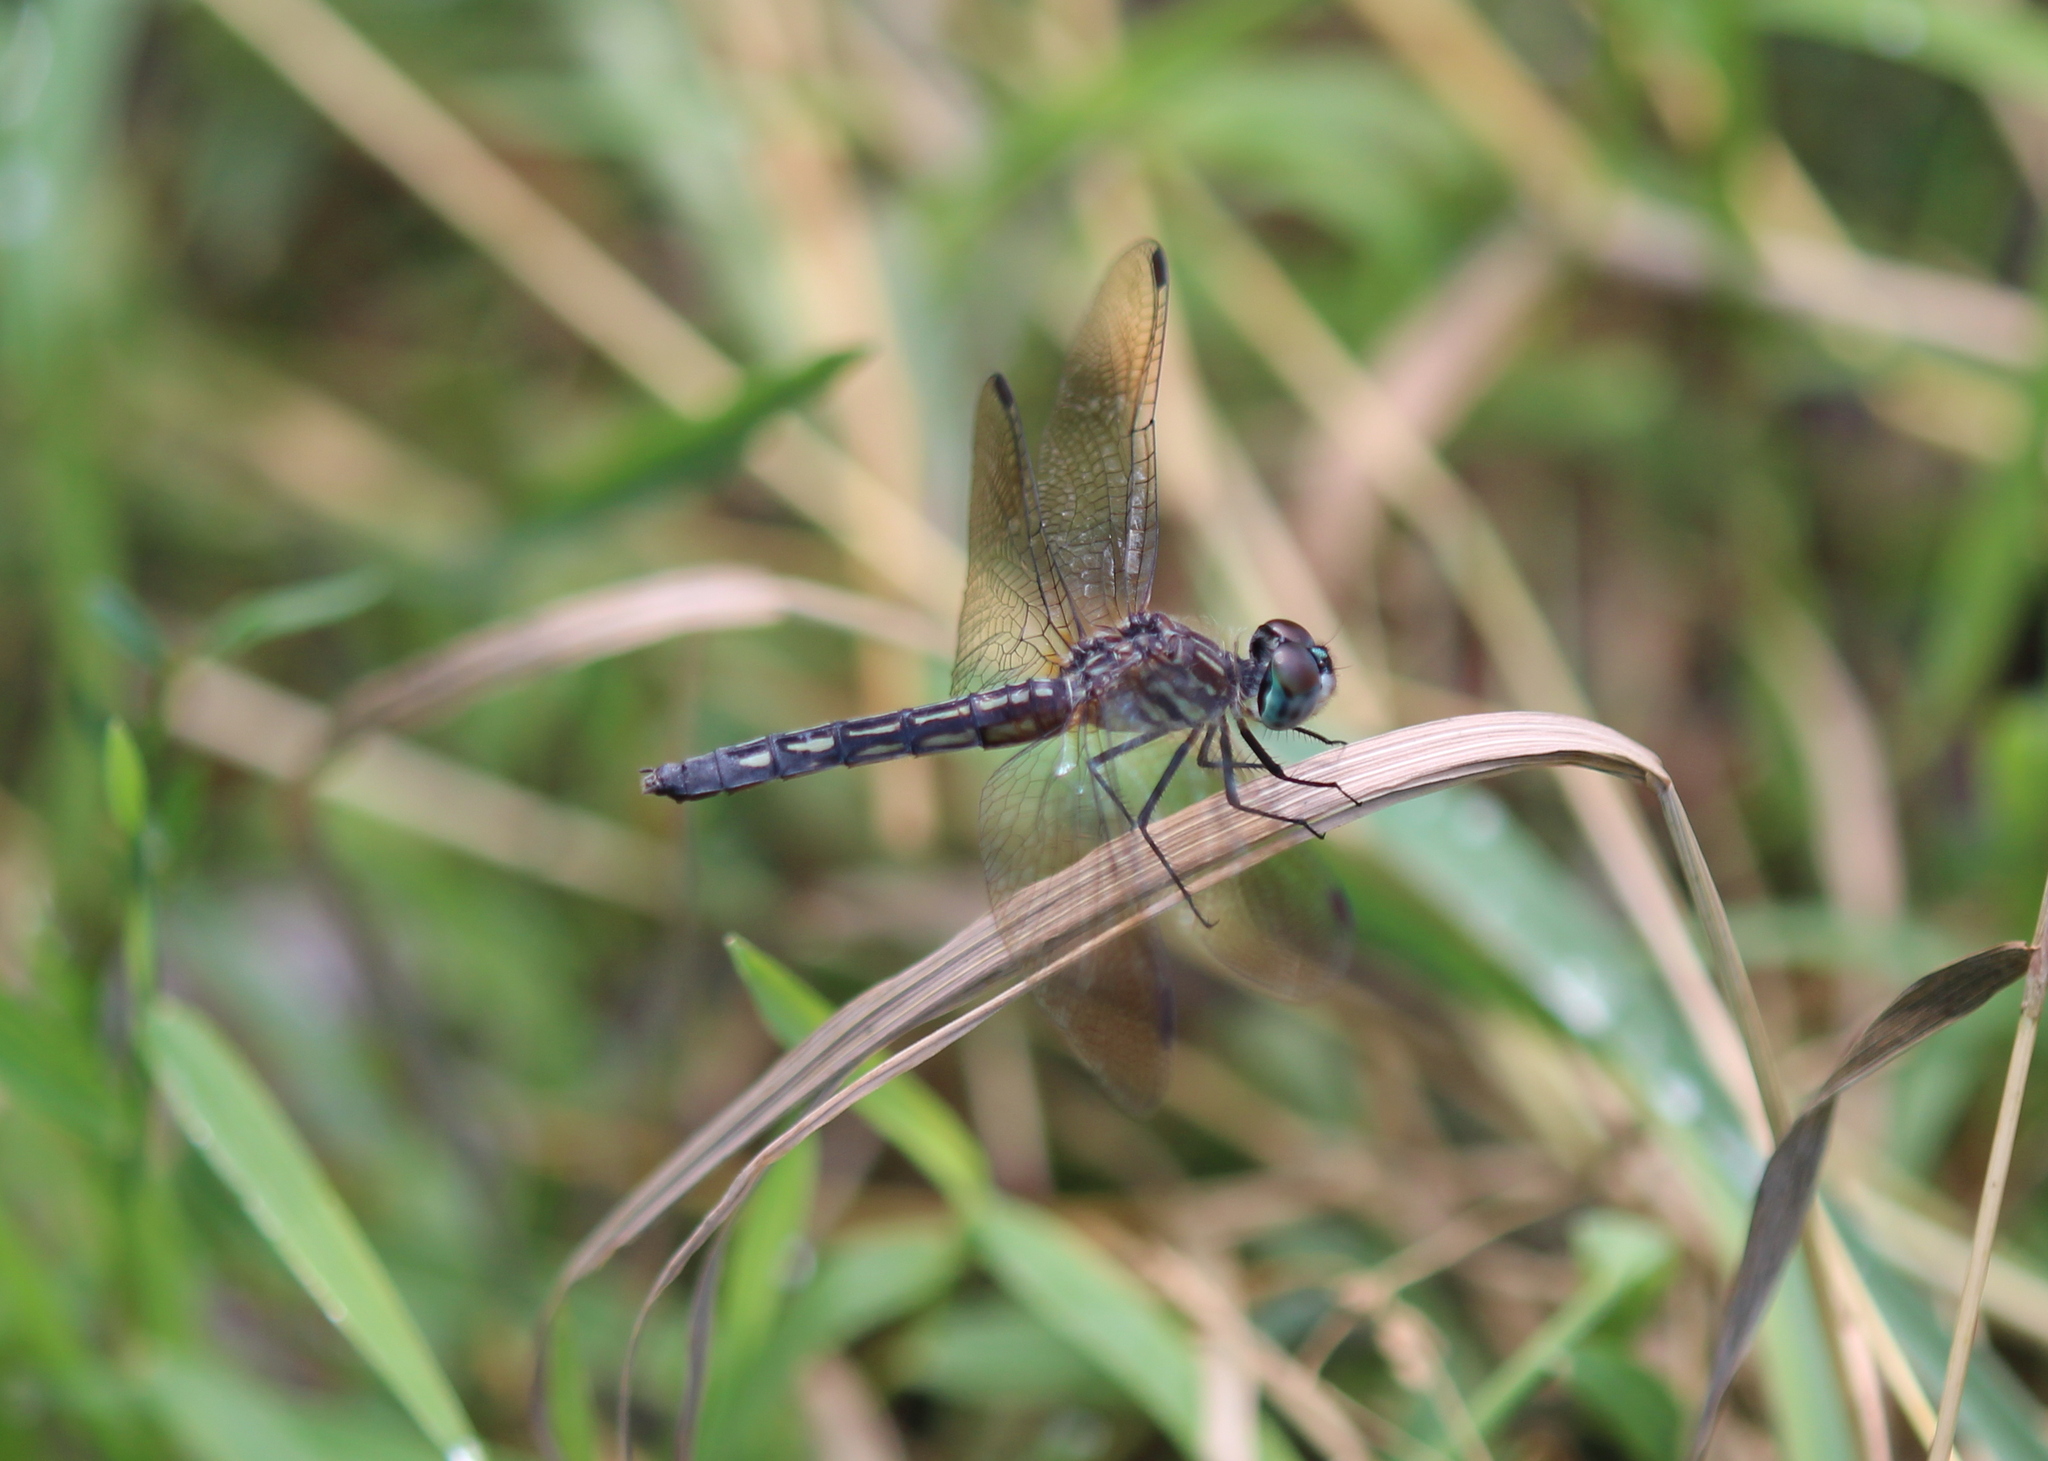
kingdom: Animalia
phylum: Arthropoda
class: Insecta
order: Odonata
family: Libellulidae
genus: Pachydiplax
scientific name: Pachydiplax longipennis
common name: Blue dasher
